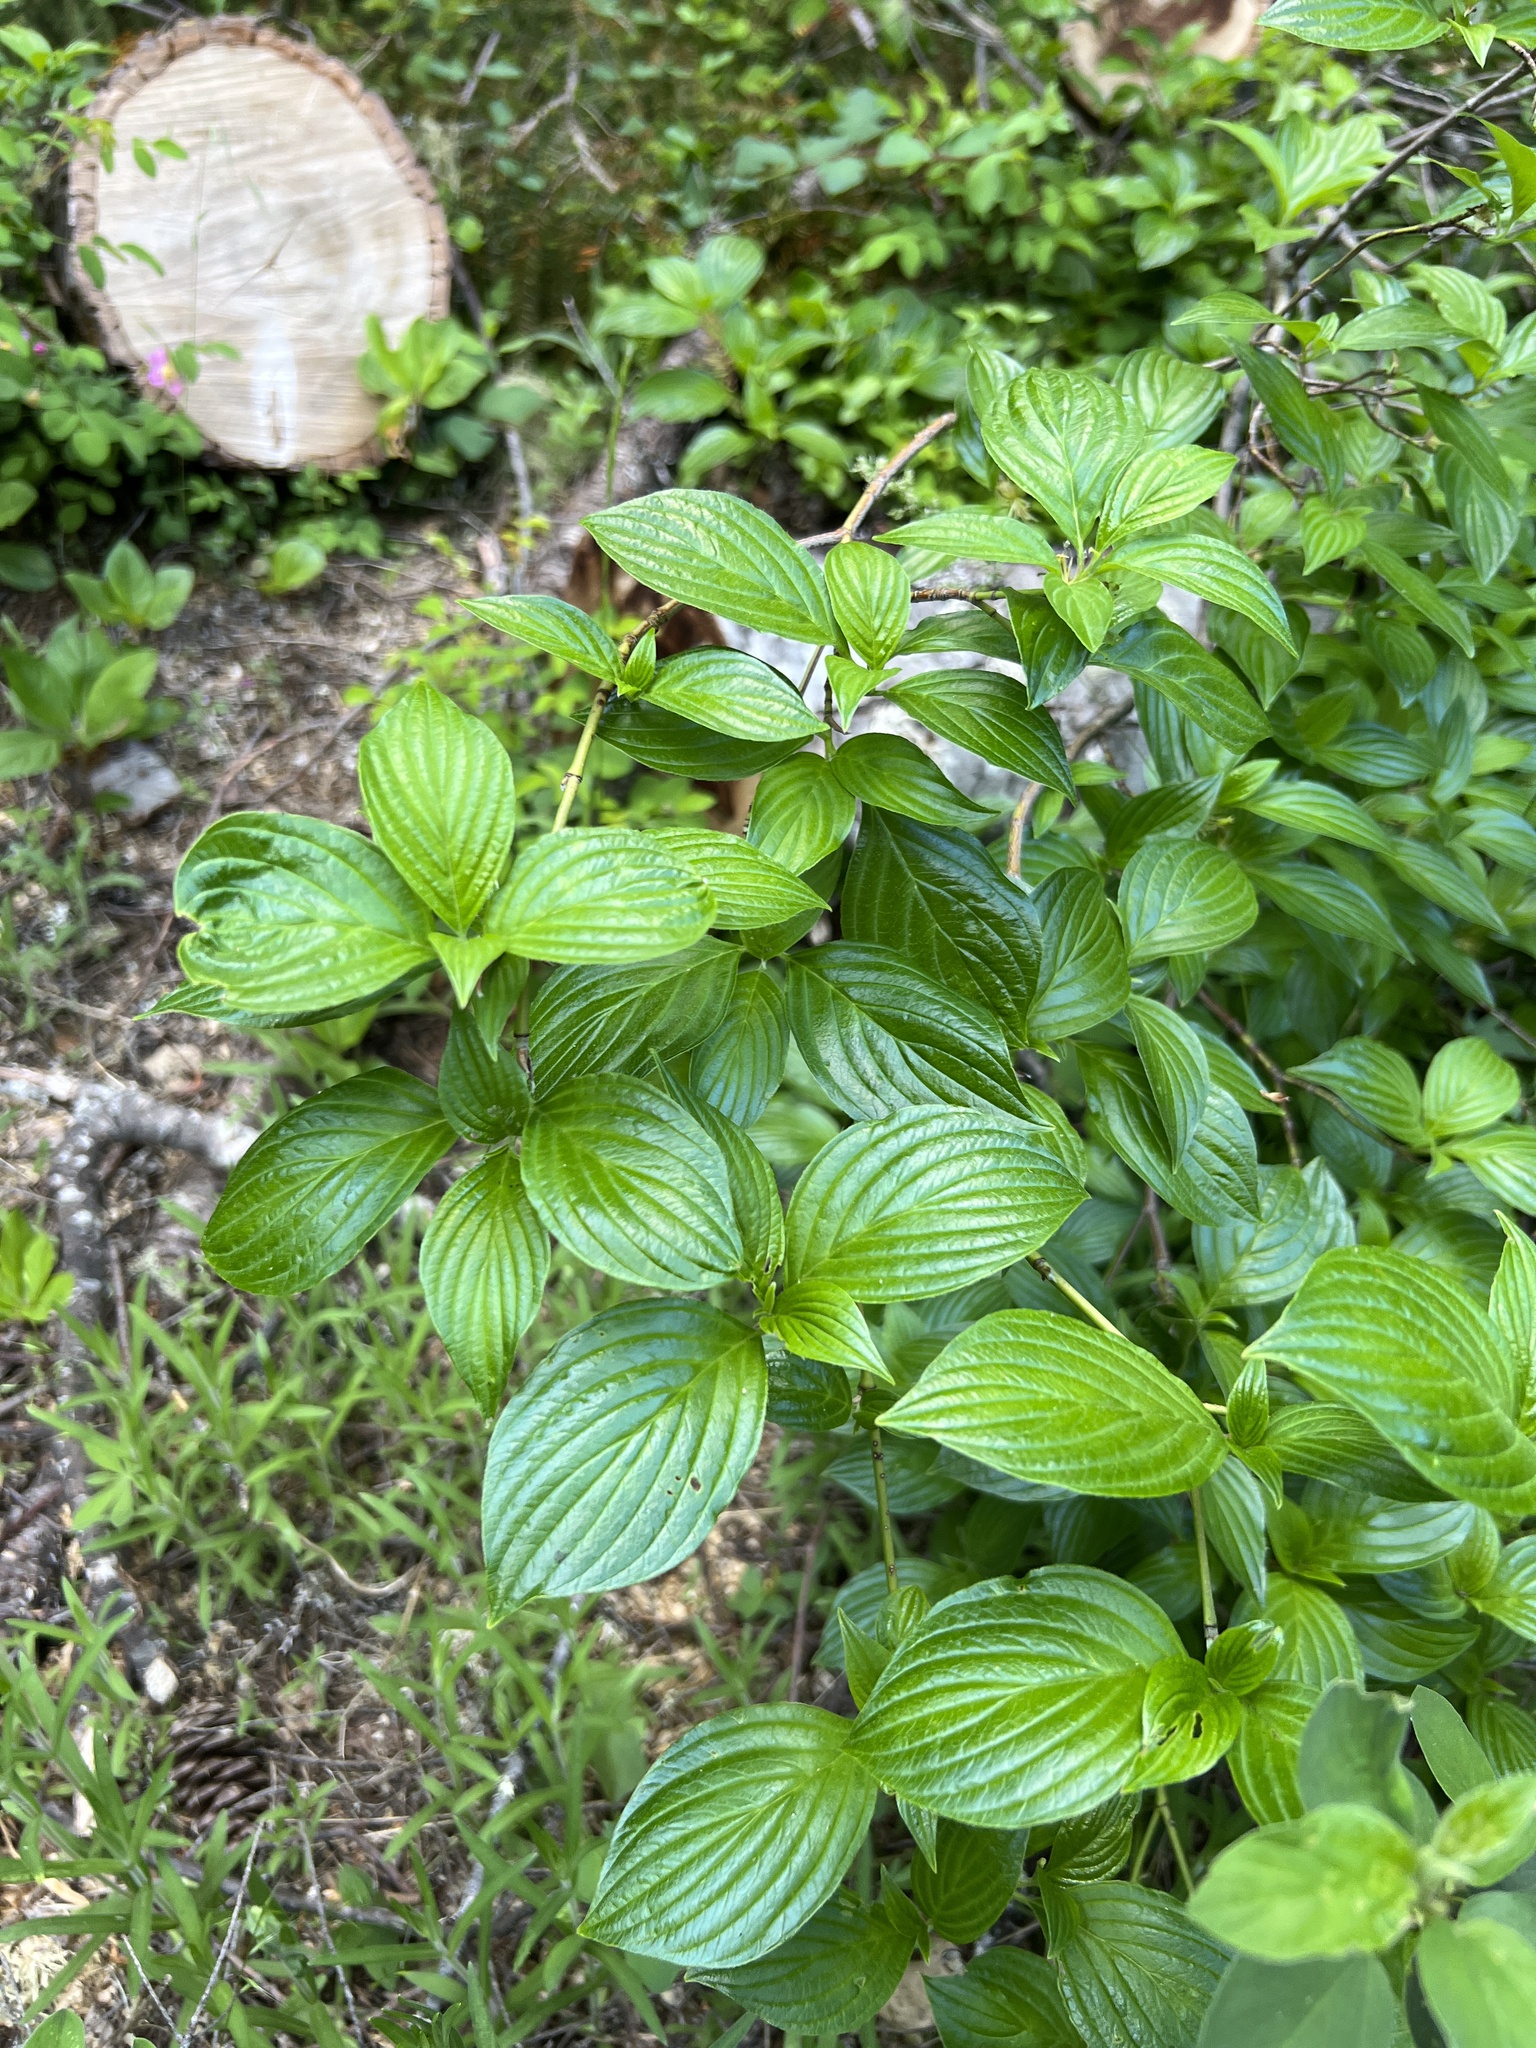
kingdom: Plantae
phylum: Tracheophyta
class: Magnoliopsida
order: Cornales
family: Cornaceae
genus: Cornus
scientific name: Cornus sessilis
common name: Blackfruit dogwood
